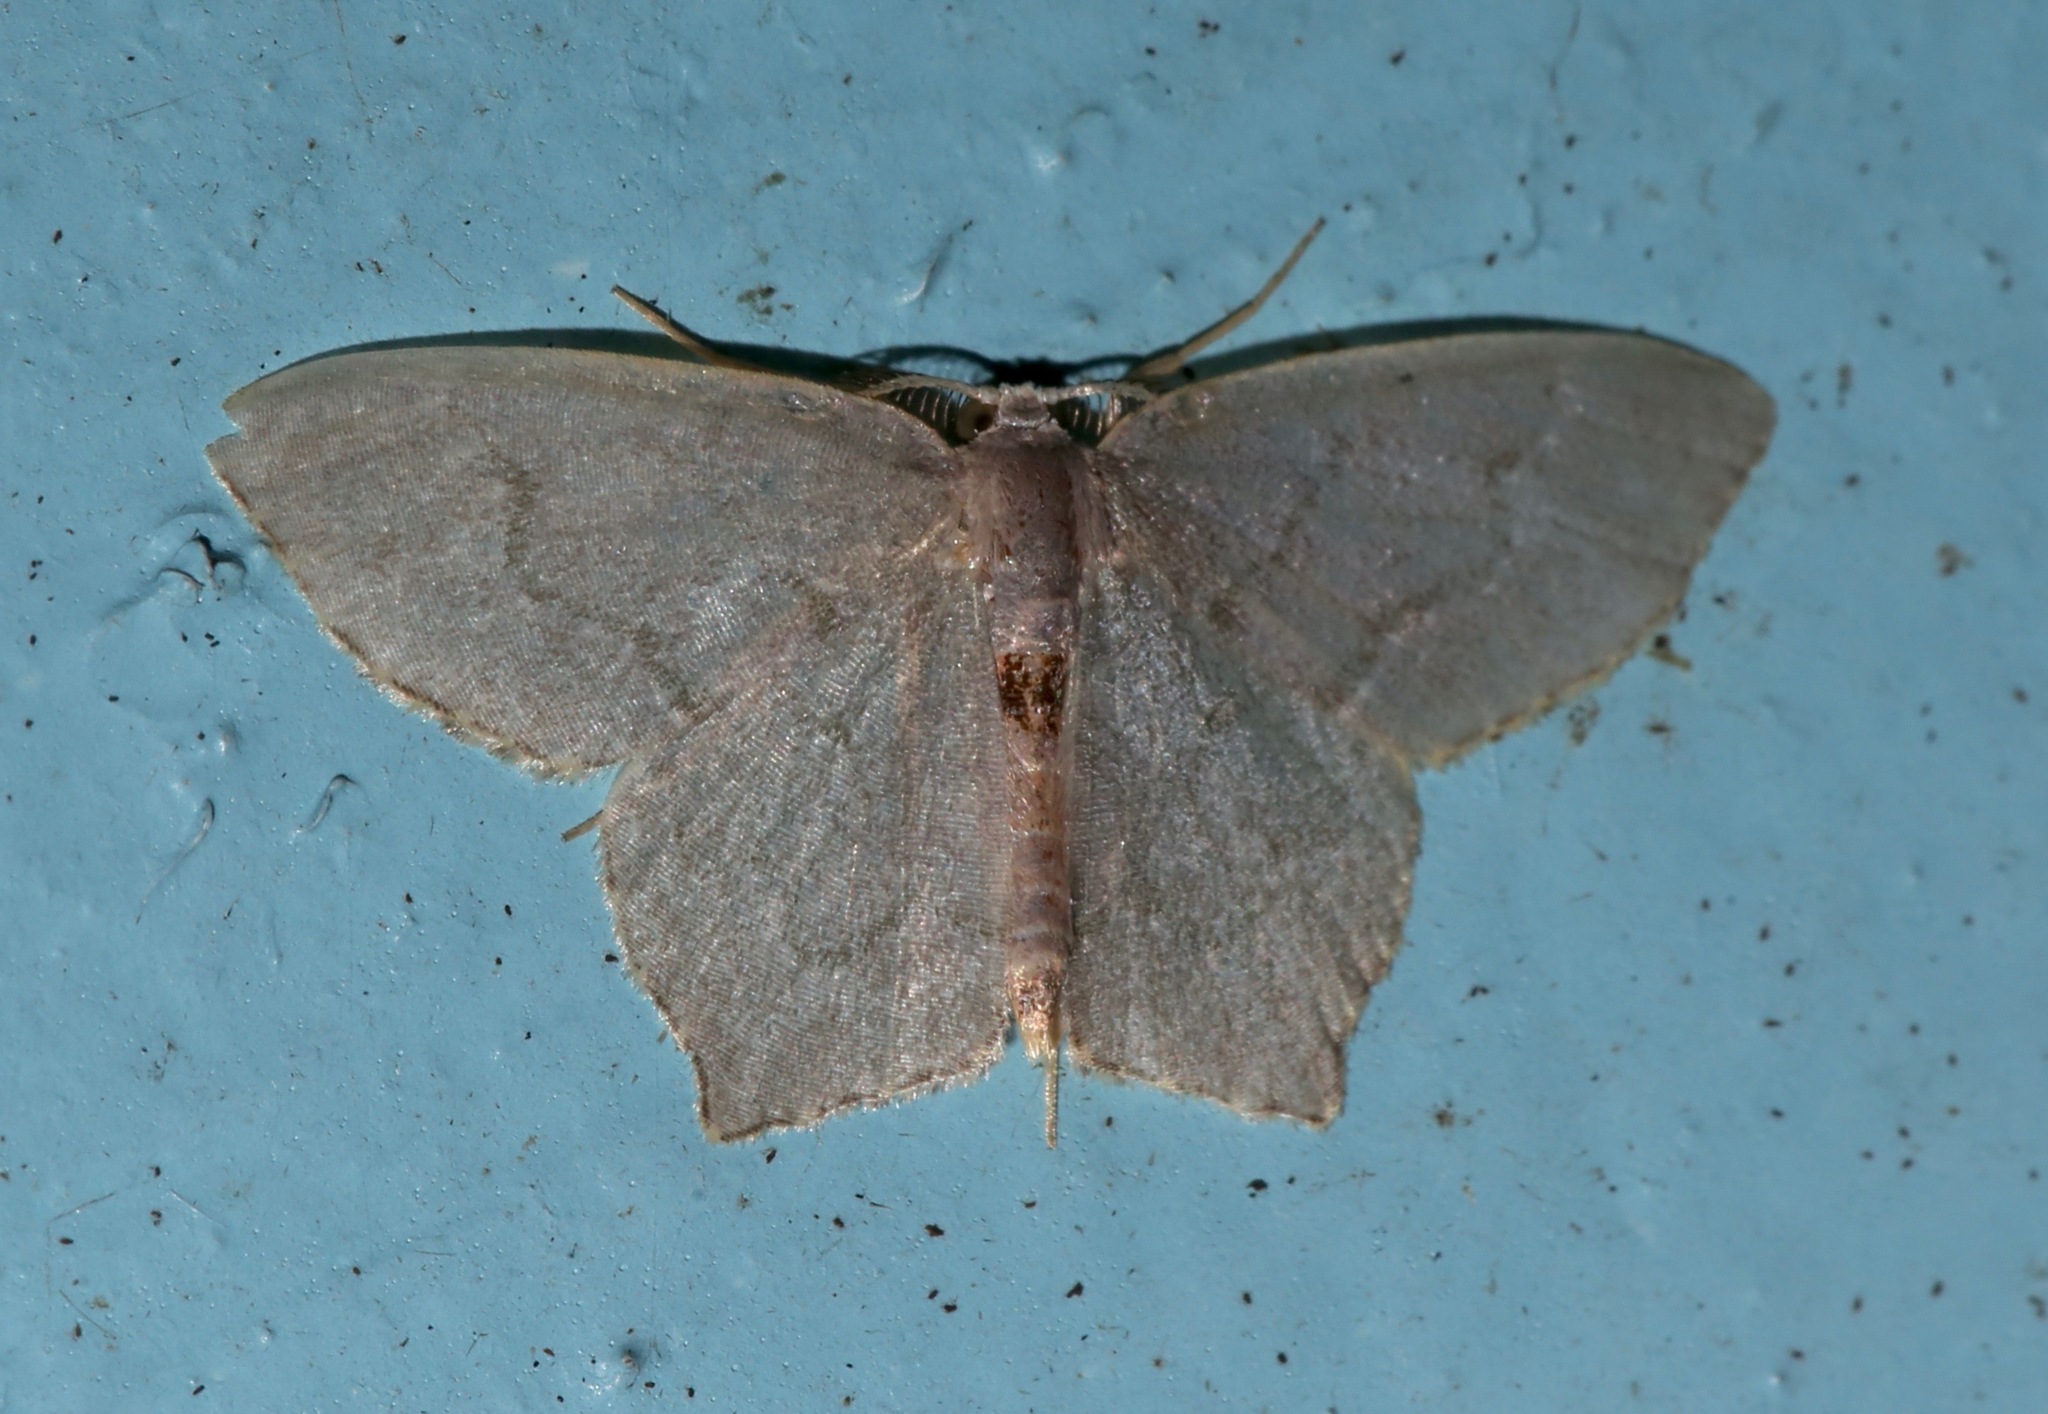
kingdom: Animalia
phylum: Arthropoda
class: Insecta
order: Lepidoptera
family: Geometridae
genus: Chloropteryx
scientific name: Chloropteryx tepperaria
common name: Angle winged emerald moth
